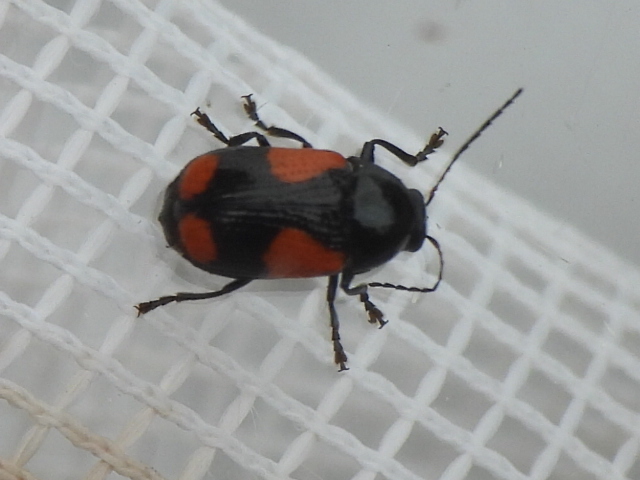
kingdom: Animalia
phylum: Arthropoda
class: Insecta
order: Coleoptera
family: Chrysomelidae
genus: Cryptocephalus
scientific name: Cryptocephalus quadruplex
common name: Black and red sumac leaf beetle
